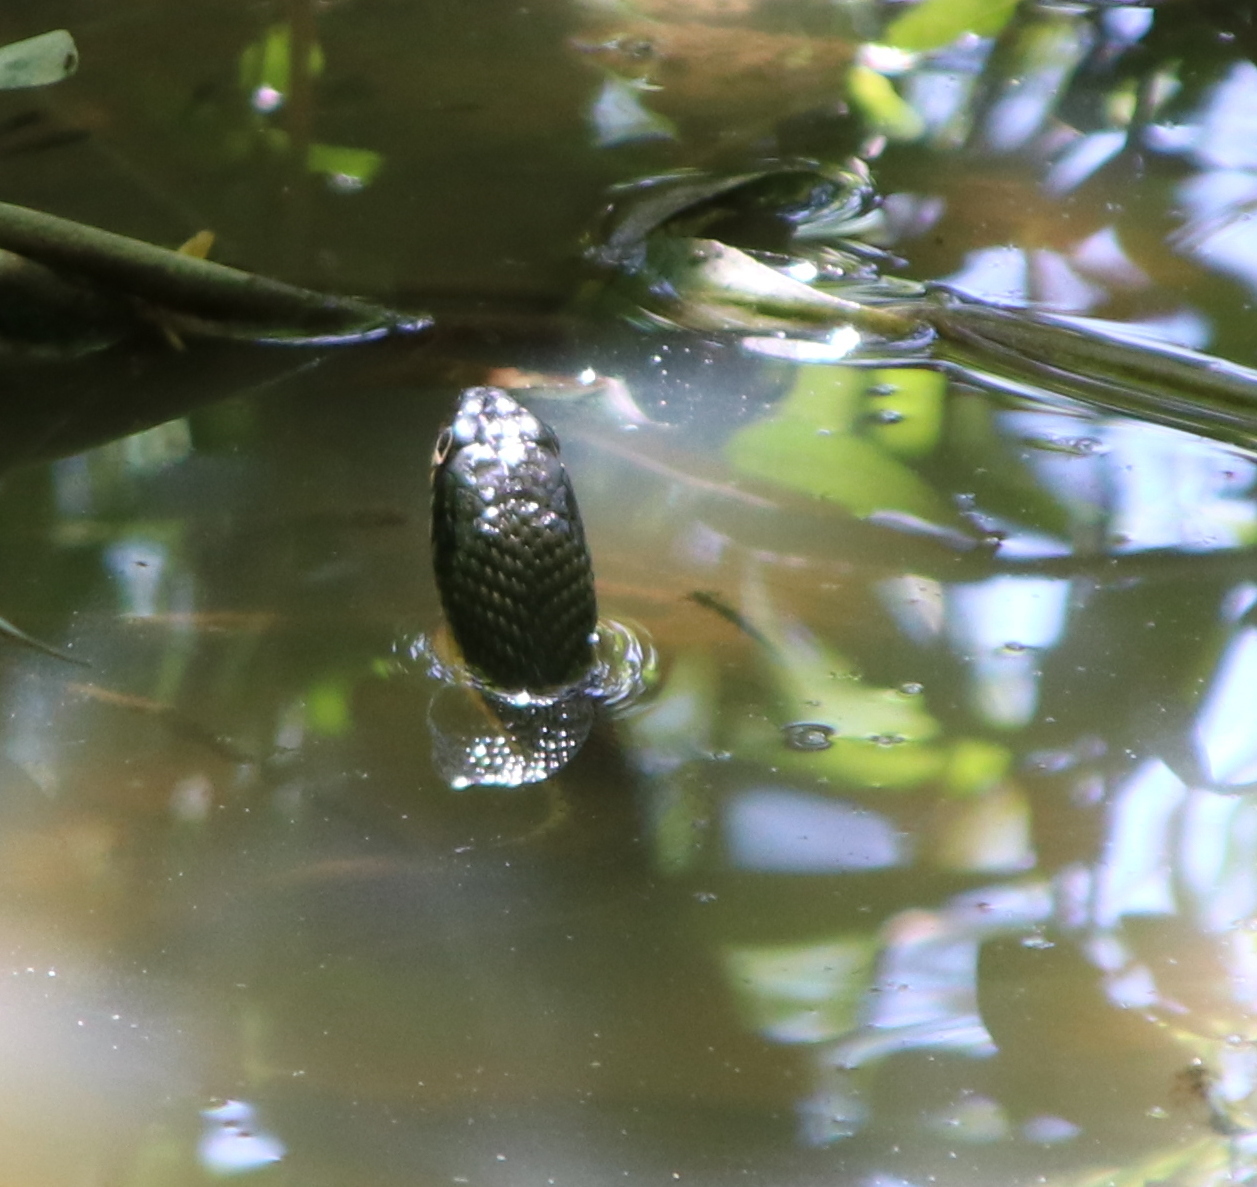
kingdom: Animalia
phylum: Chordata
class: Squamata
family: Colubridae
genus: Nerodia
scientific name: Nerodia erythrogaster
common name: Plainbelly water snake
